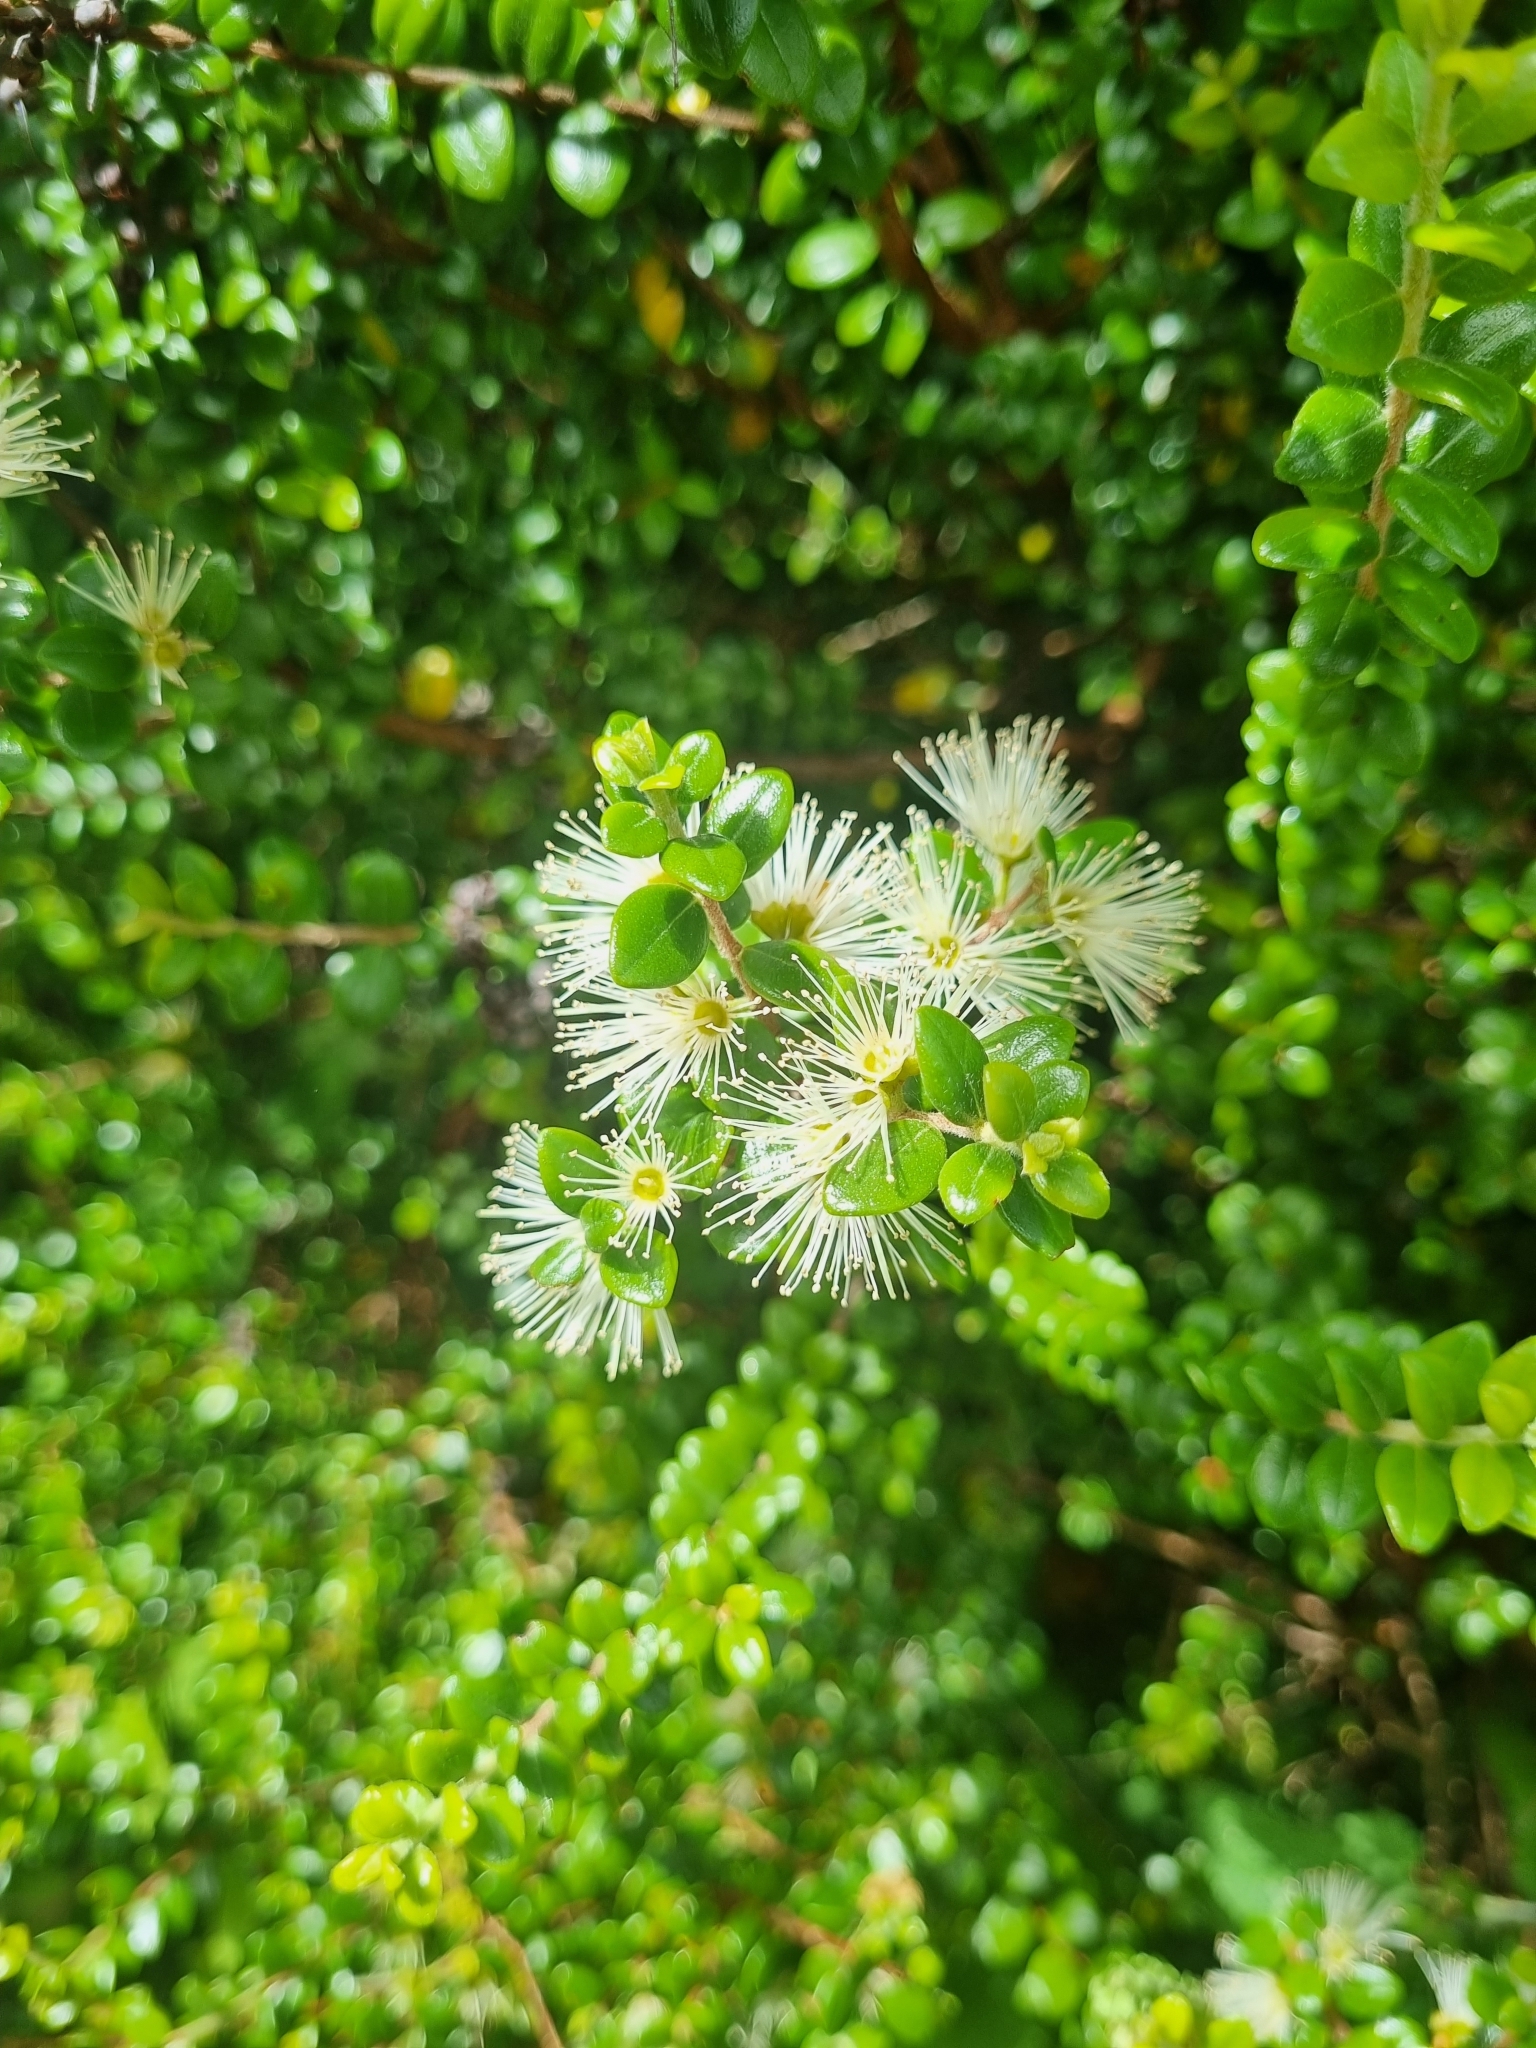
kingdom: Plantae
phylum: Tracheophyta
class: Magnoliopsida
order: Myrtales
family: Myrtaceae
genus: Metrosideros
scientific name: Metrosideros perforata
